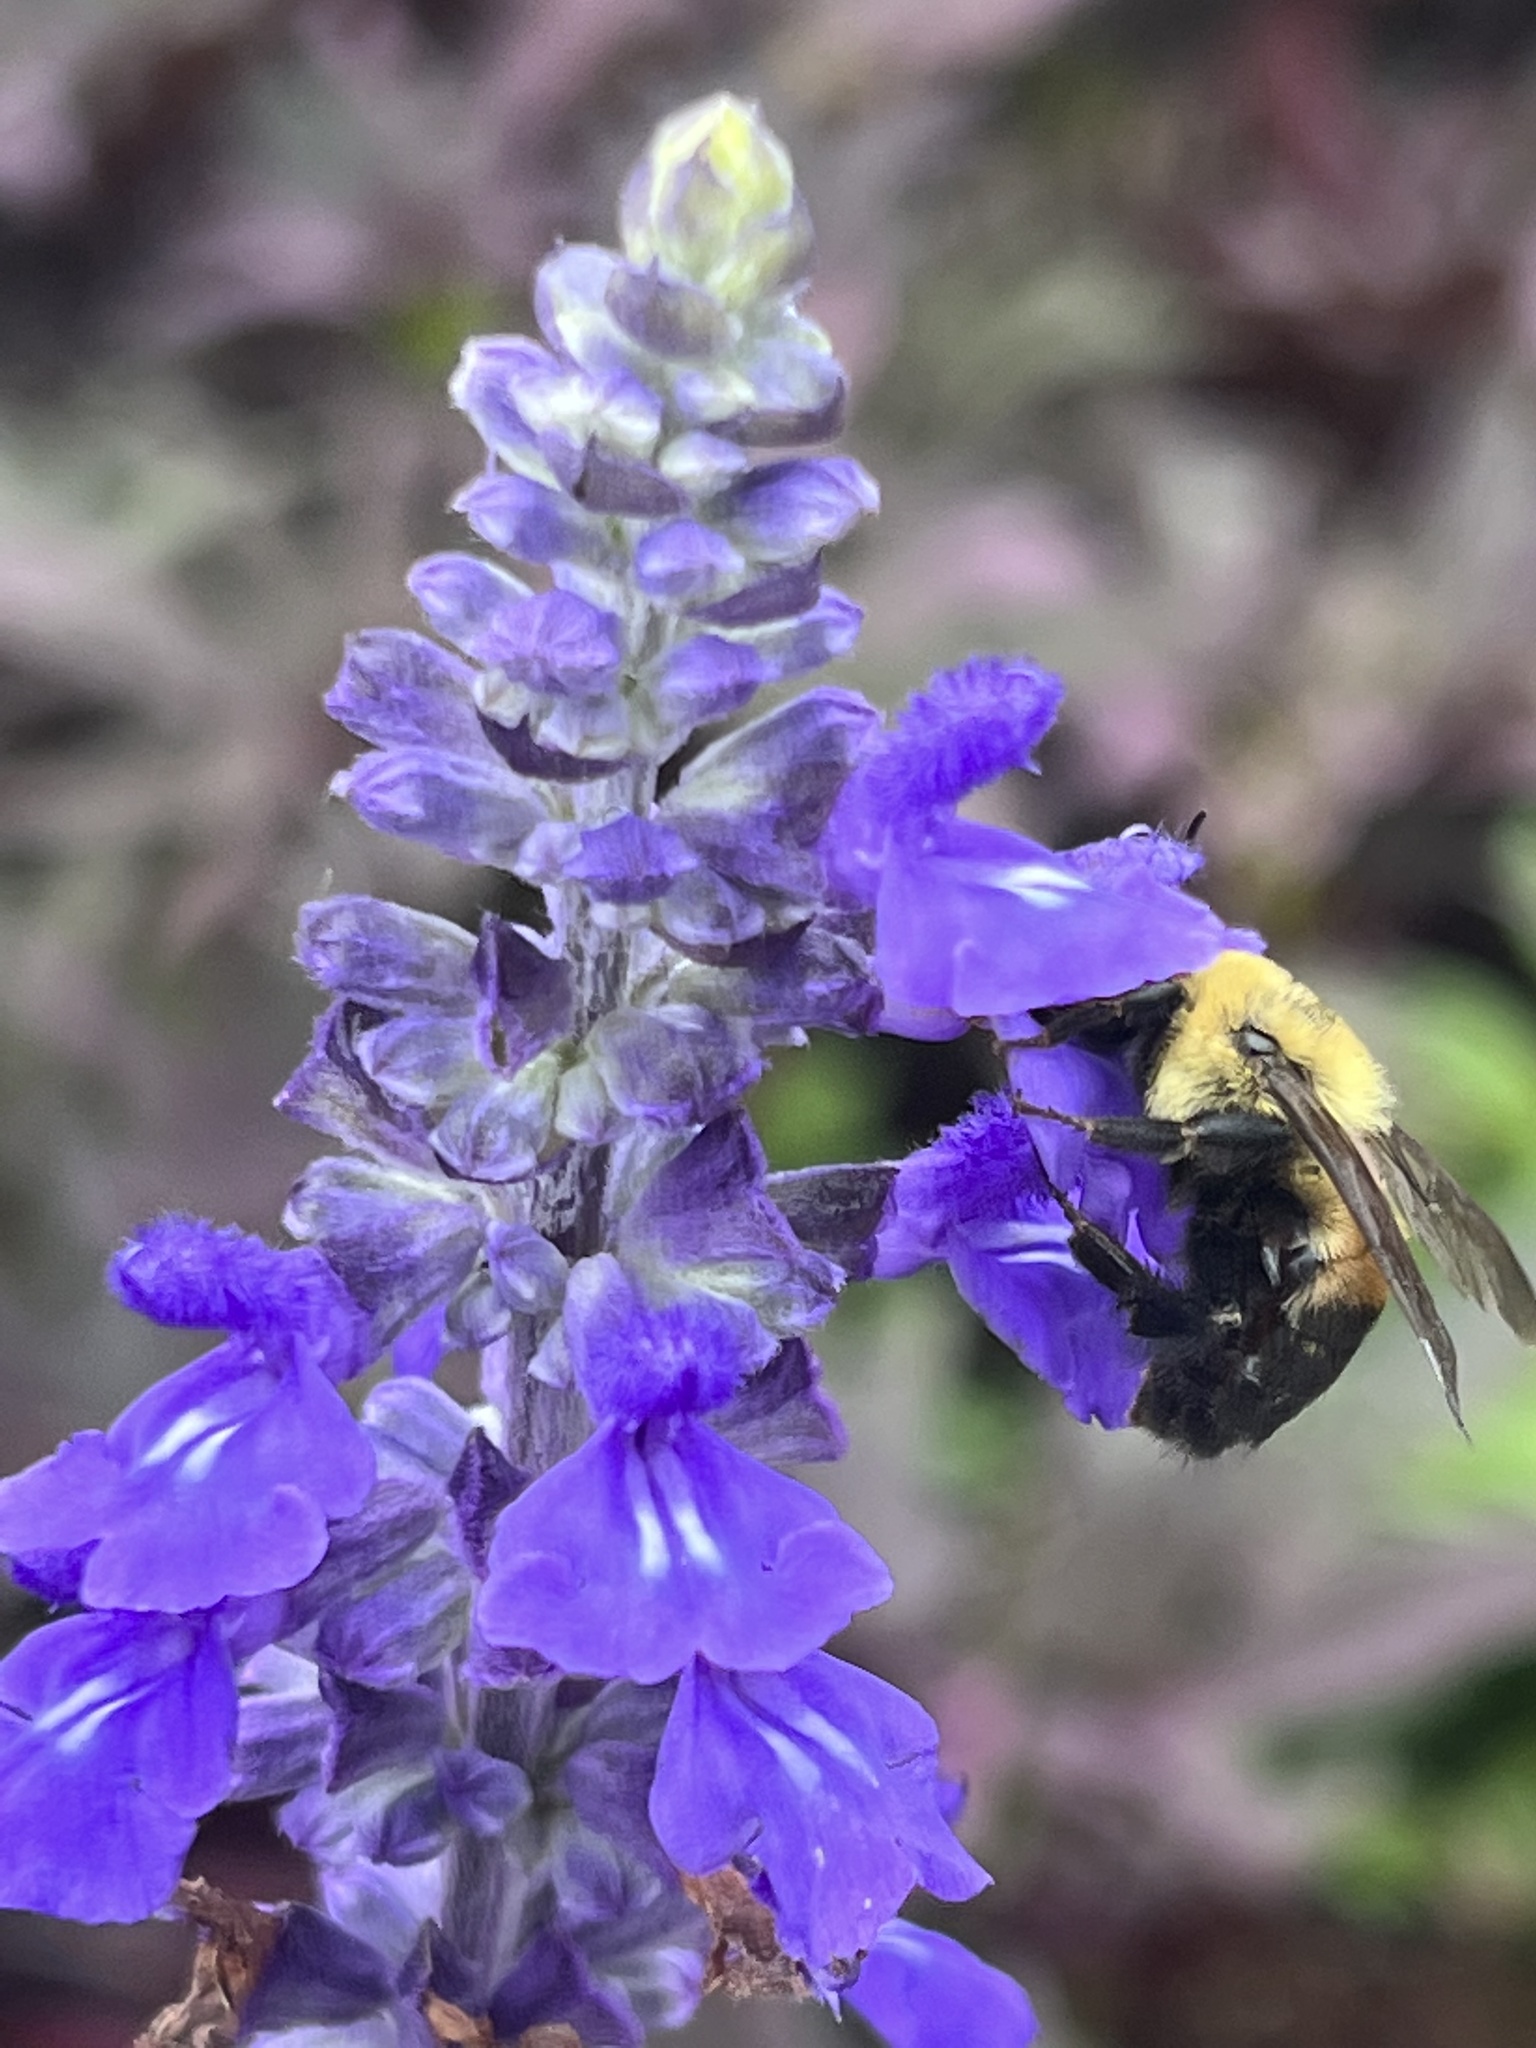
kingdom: Animalia
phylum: Arthropoda
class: Insecta
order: Hymenoptera
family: Apidae
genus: Bombus
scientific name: Bombus griseocollis
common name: Brown-belted bumble bee
